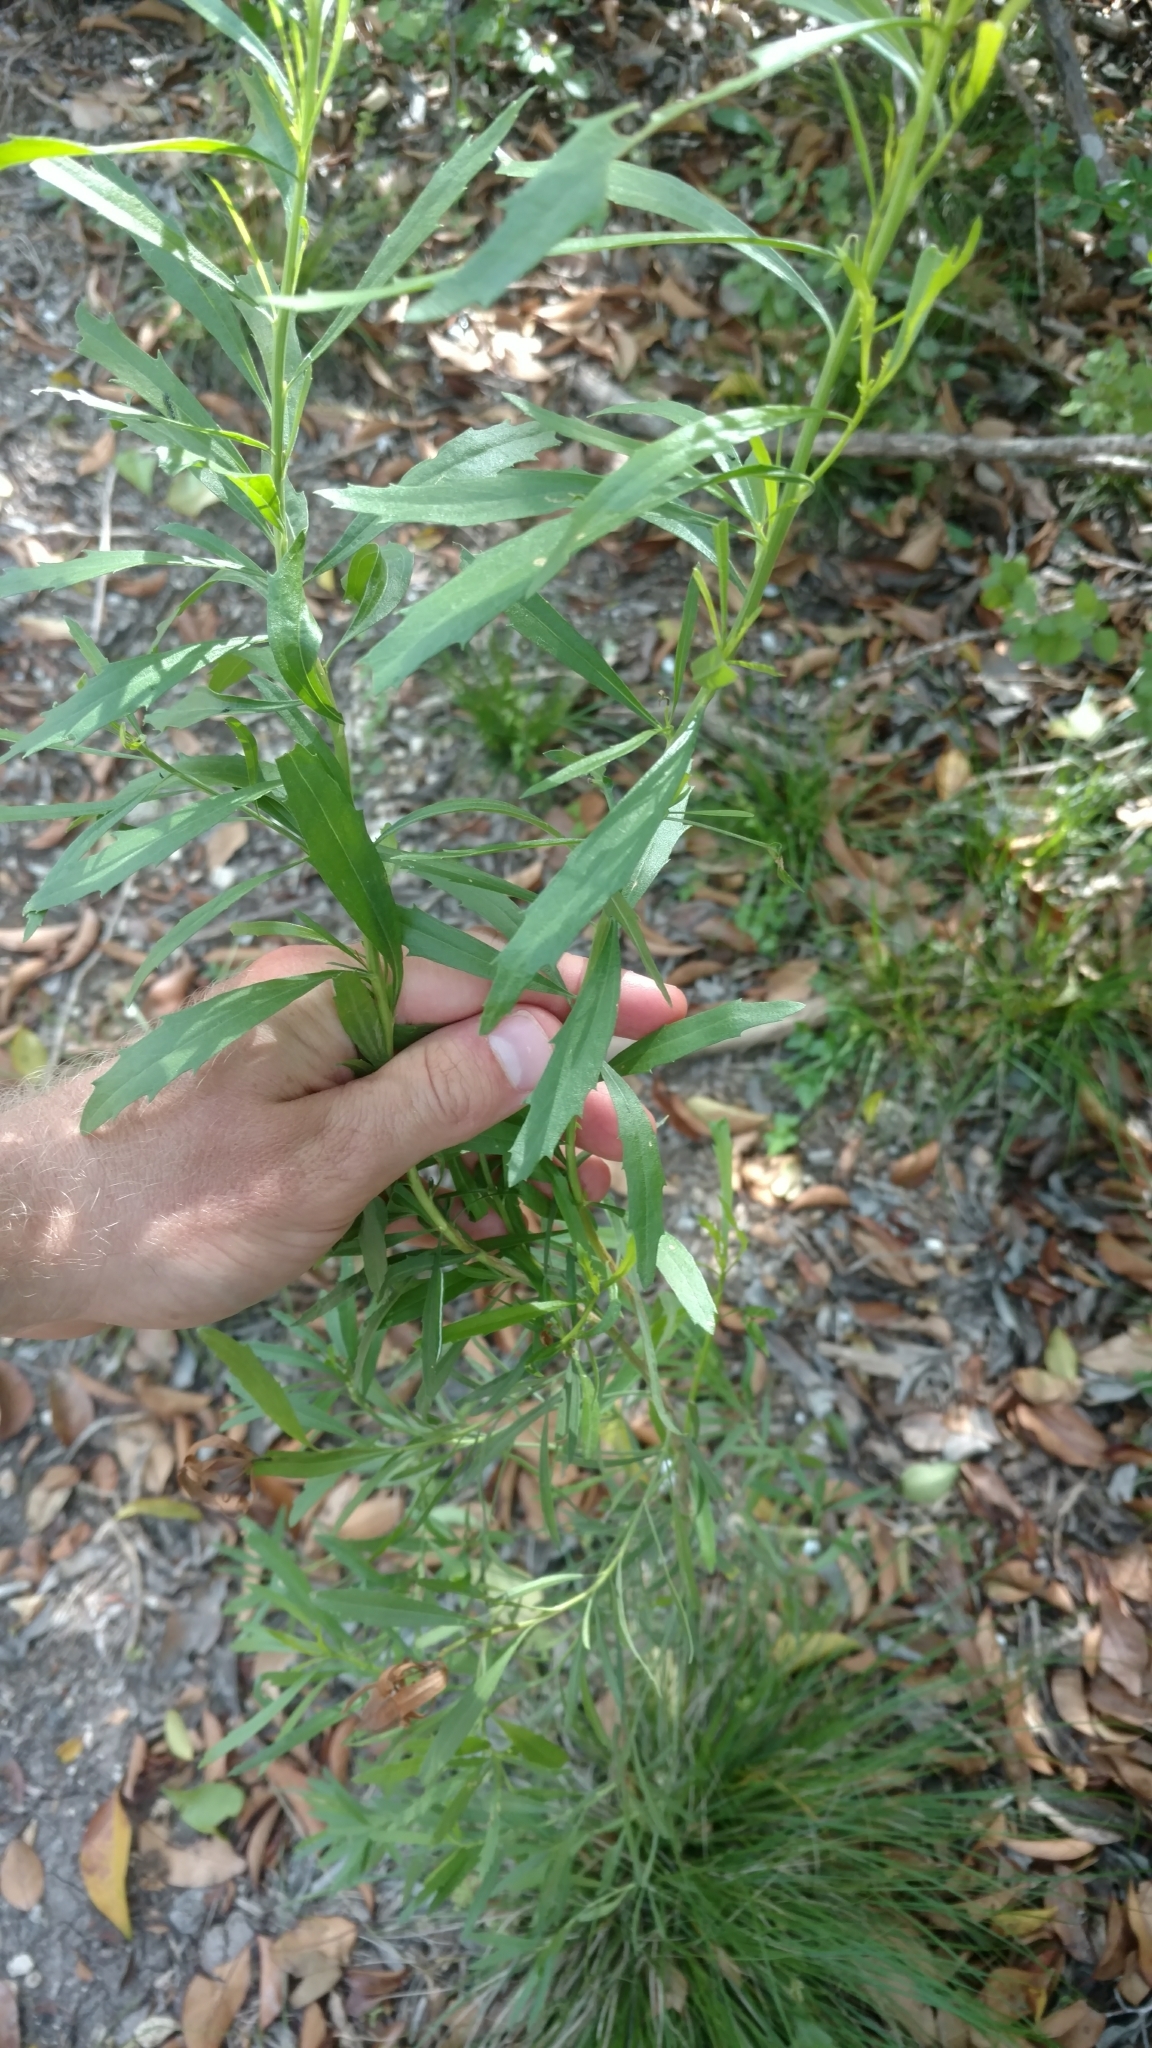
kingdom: Plantae
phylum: Tracheophyta
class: Magnoliopsida
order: Asterales
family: Asteraceae
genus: Baccharis
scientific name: Baccharis neglecta
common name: Roosevelt-weed
